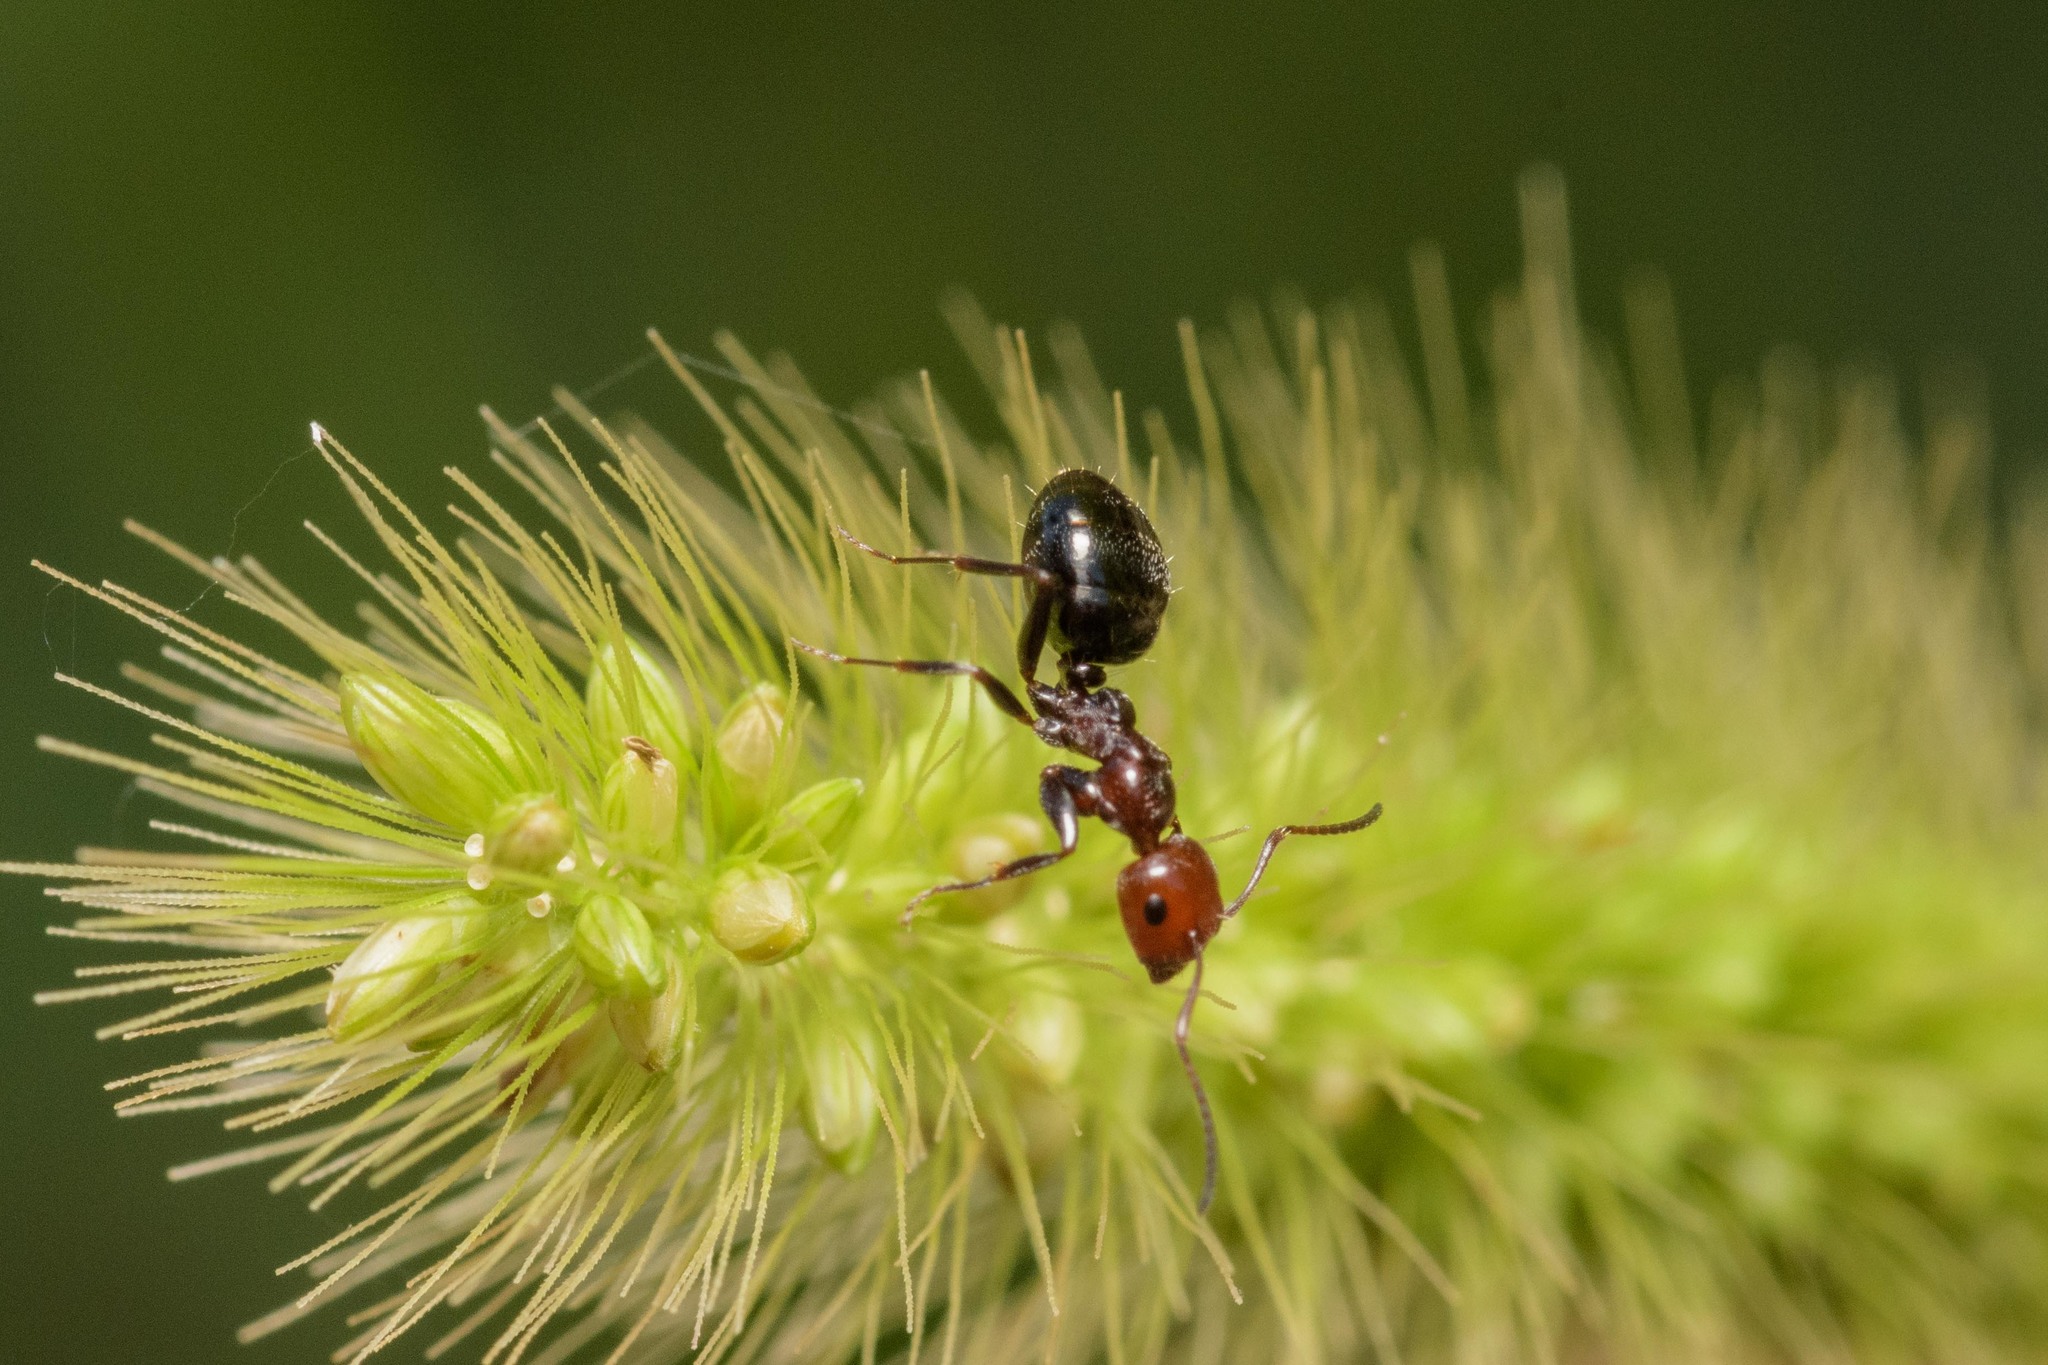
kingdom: Animalia
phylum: Arthropoda
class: Insecta
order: Hymenoptera
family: Formicidae
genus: Camponotus
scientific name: Camponotus lateralis
